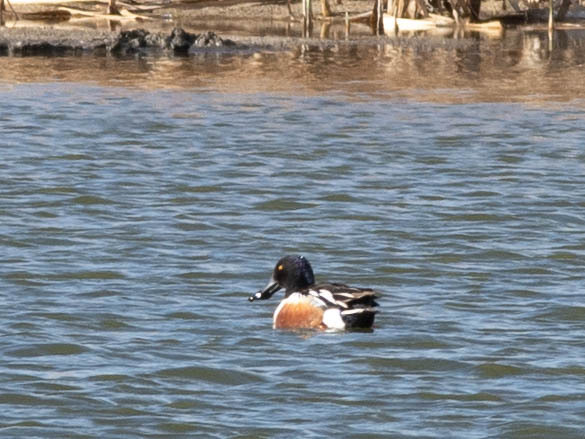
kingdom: Animalia
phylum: Chordata
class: Aves
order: Anseriformes
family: Anatidae
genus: Spatula
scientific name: Spatula clypeata
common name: Northern shoveler
